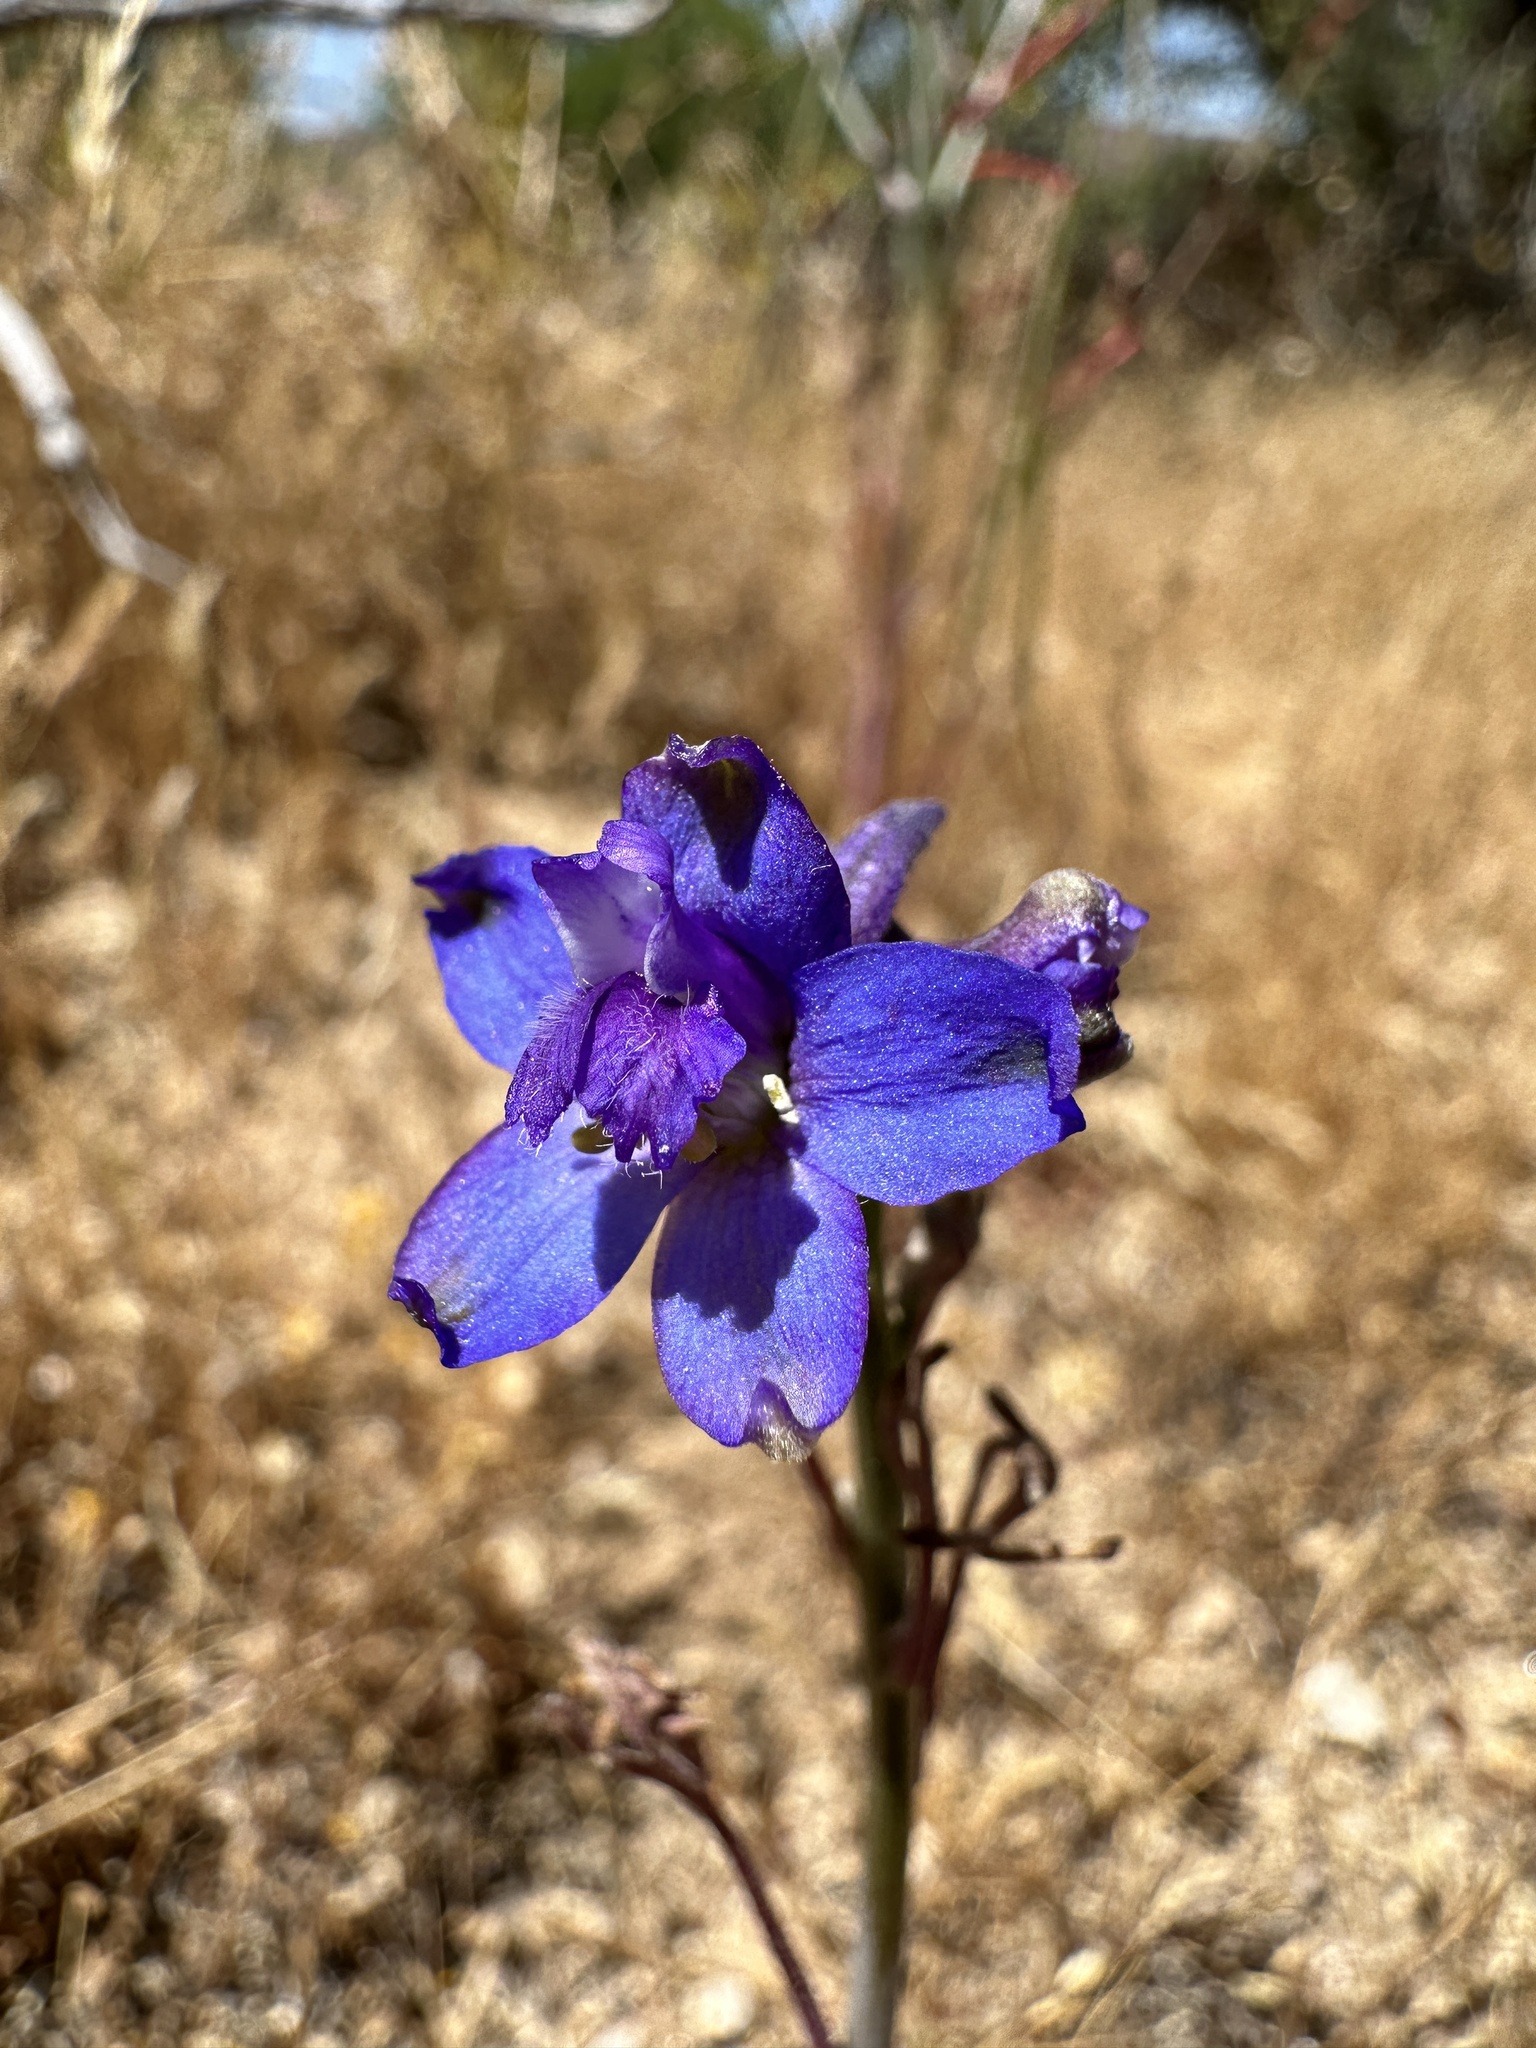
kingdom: Plantae
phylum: Tracheophyta
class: Magnoliopsida
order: Ranunculales
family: Ranunculaceae
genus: Delphinium
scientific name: Delphinium parishii
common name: Apache larkspur
